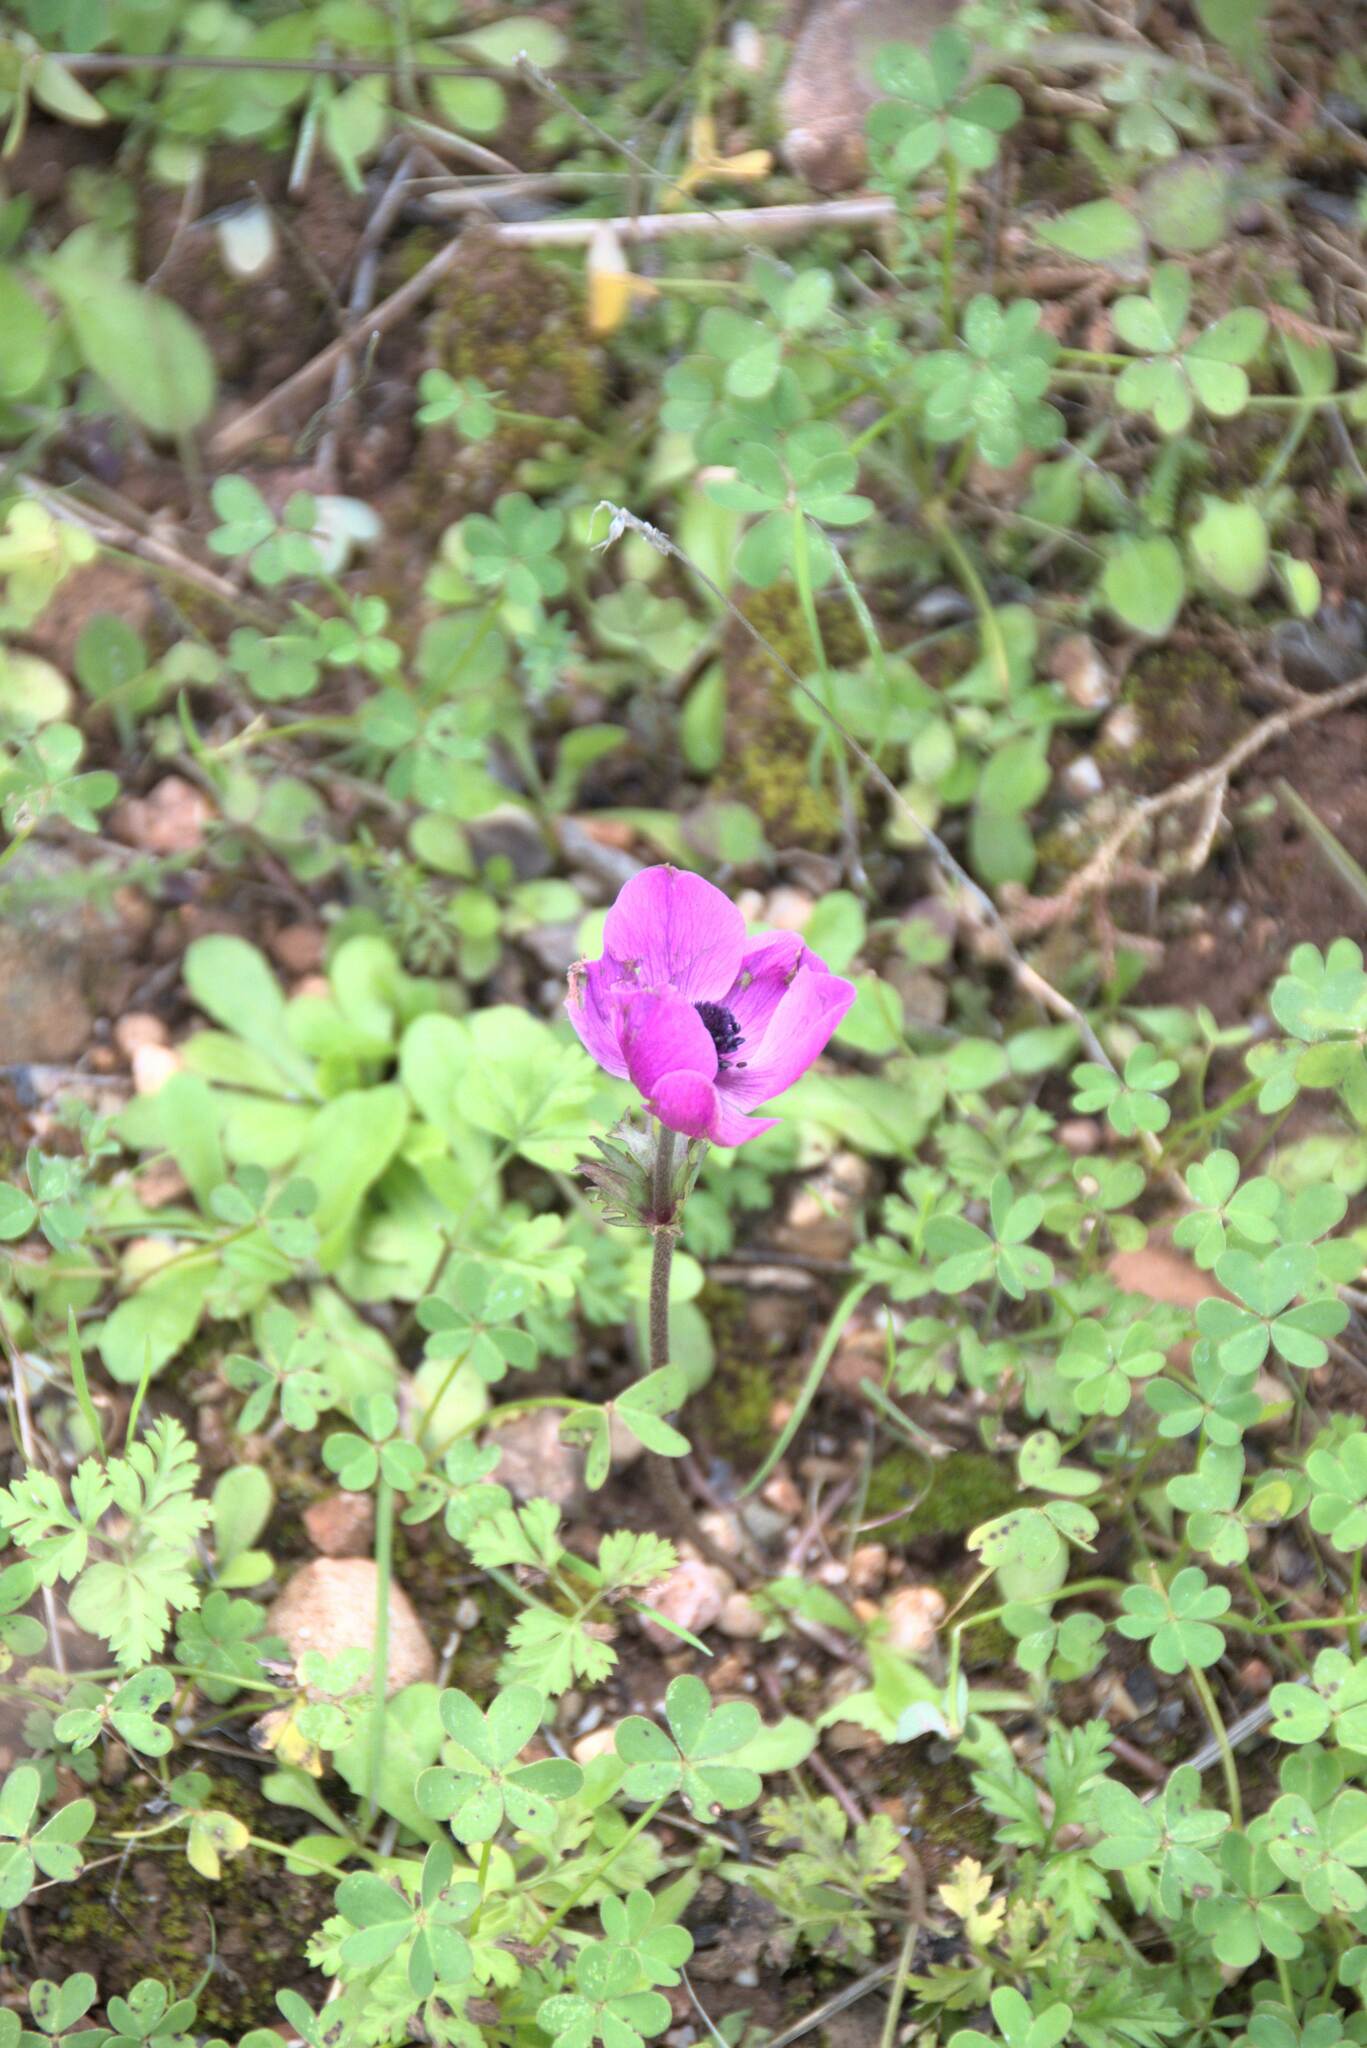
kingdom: Plantae
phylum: Tracheophyta
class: Magnoliopsida
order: Ranunculales
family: Ranunculaceae
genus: Anemone
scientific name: Anemone coronaria
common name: Poppy anemone
